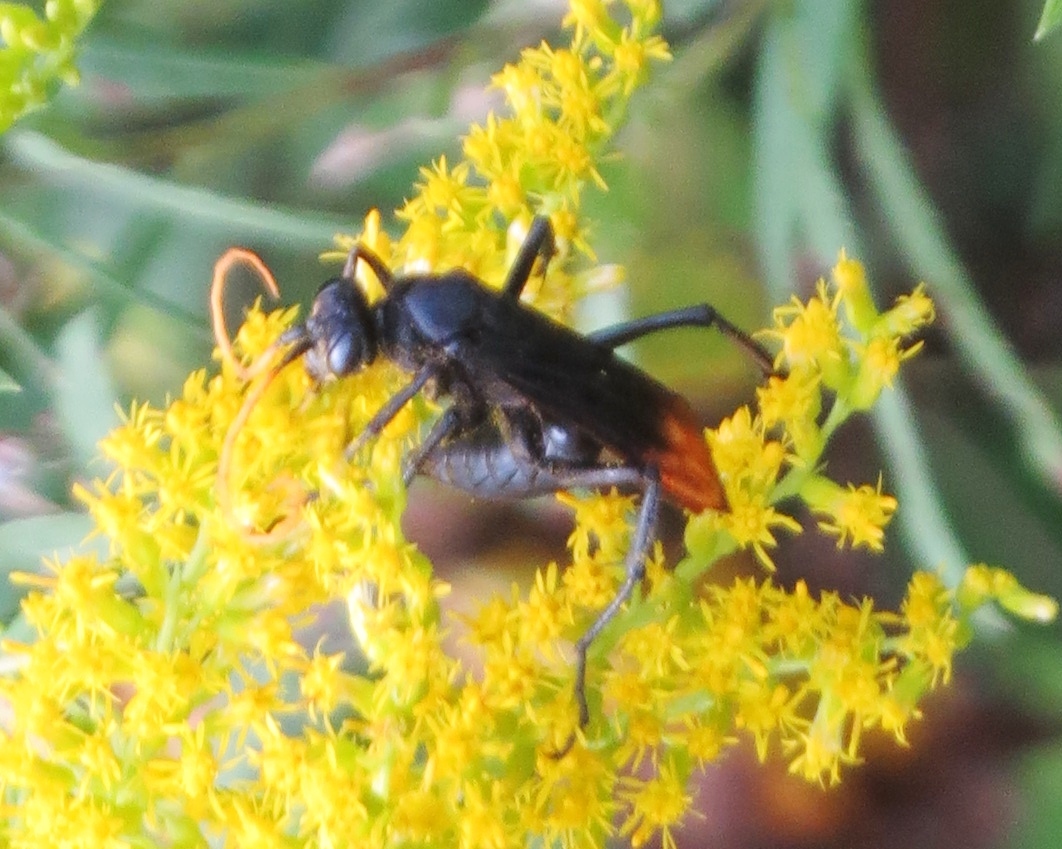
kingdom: Animalia
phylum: Arthropoda
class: Insecta
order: Hymenoptera
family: Pompilidae
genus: Entypus
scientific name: Entypus unifasciatus
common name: Eastern tawny-horned spider wasp
